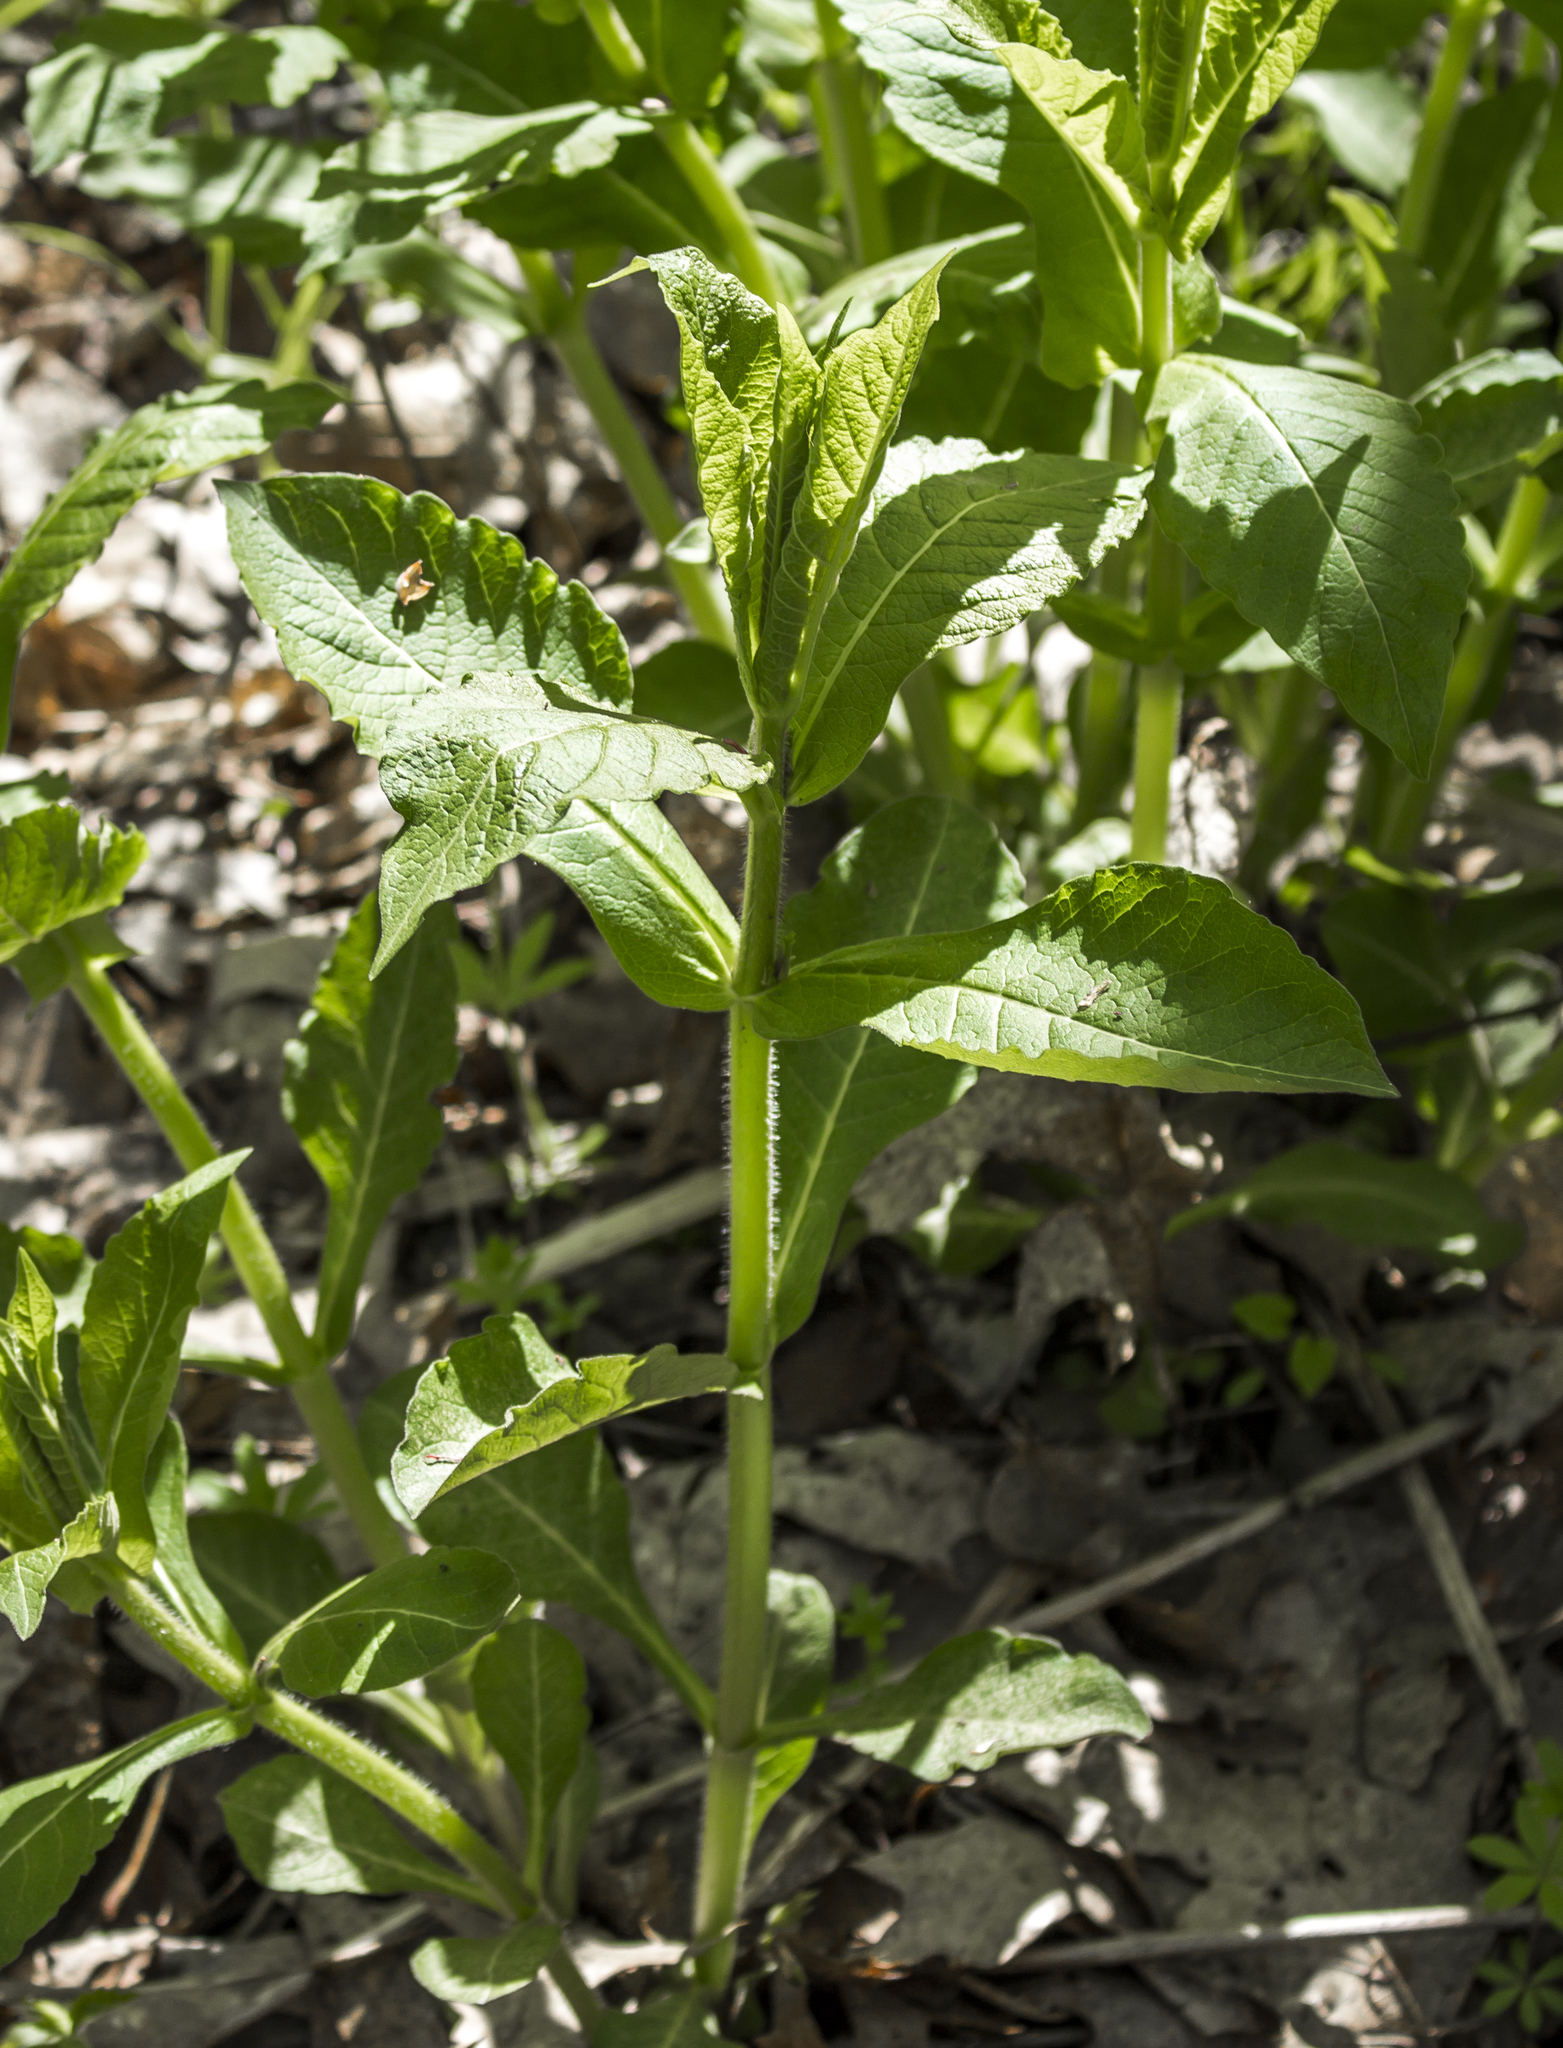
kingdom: Plantae
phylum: Tracheophyta
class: Magnoliopsida
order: Dipsacales
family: Caprifoliaceae
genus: Triosteum
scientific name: Triosteum aurantiacum
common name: Coffee tinker's-weed
